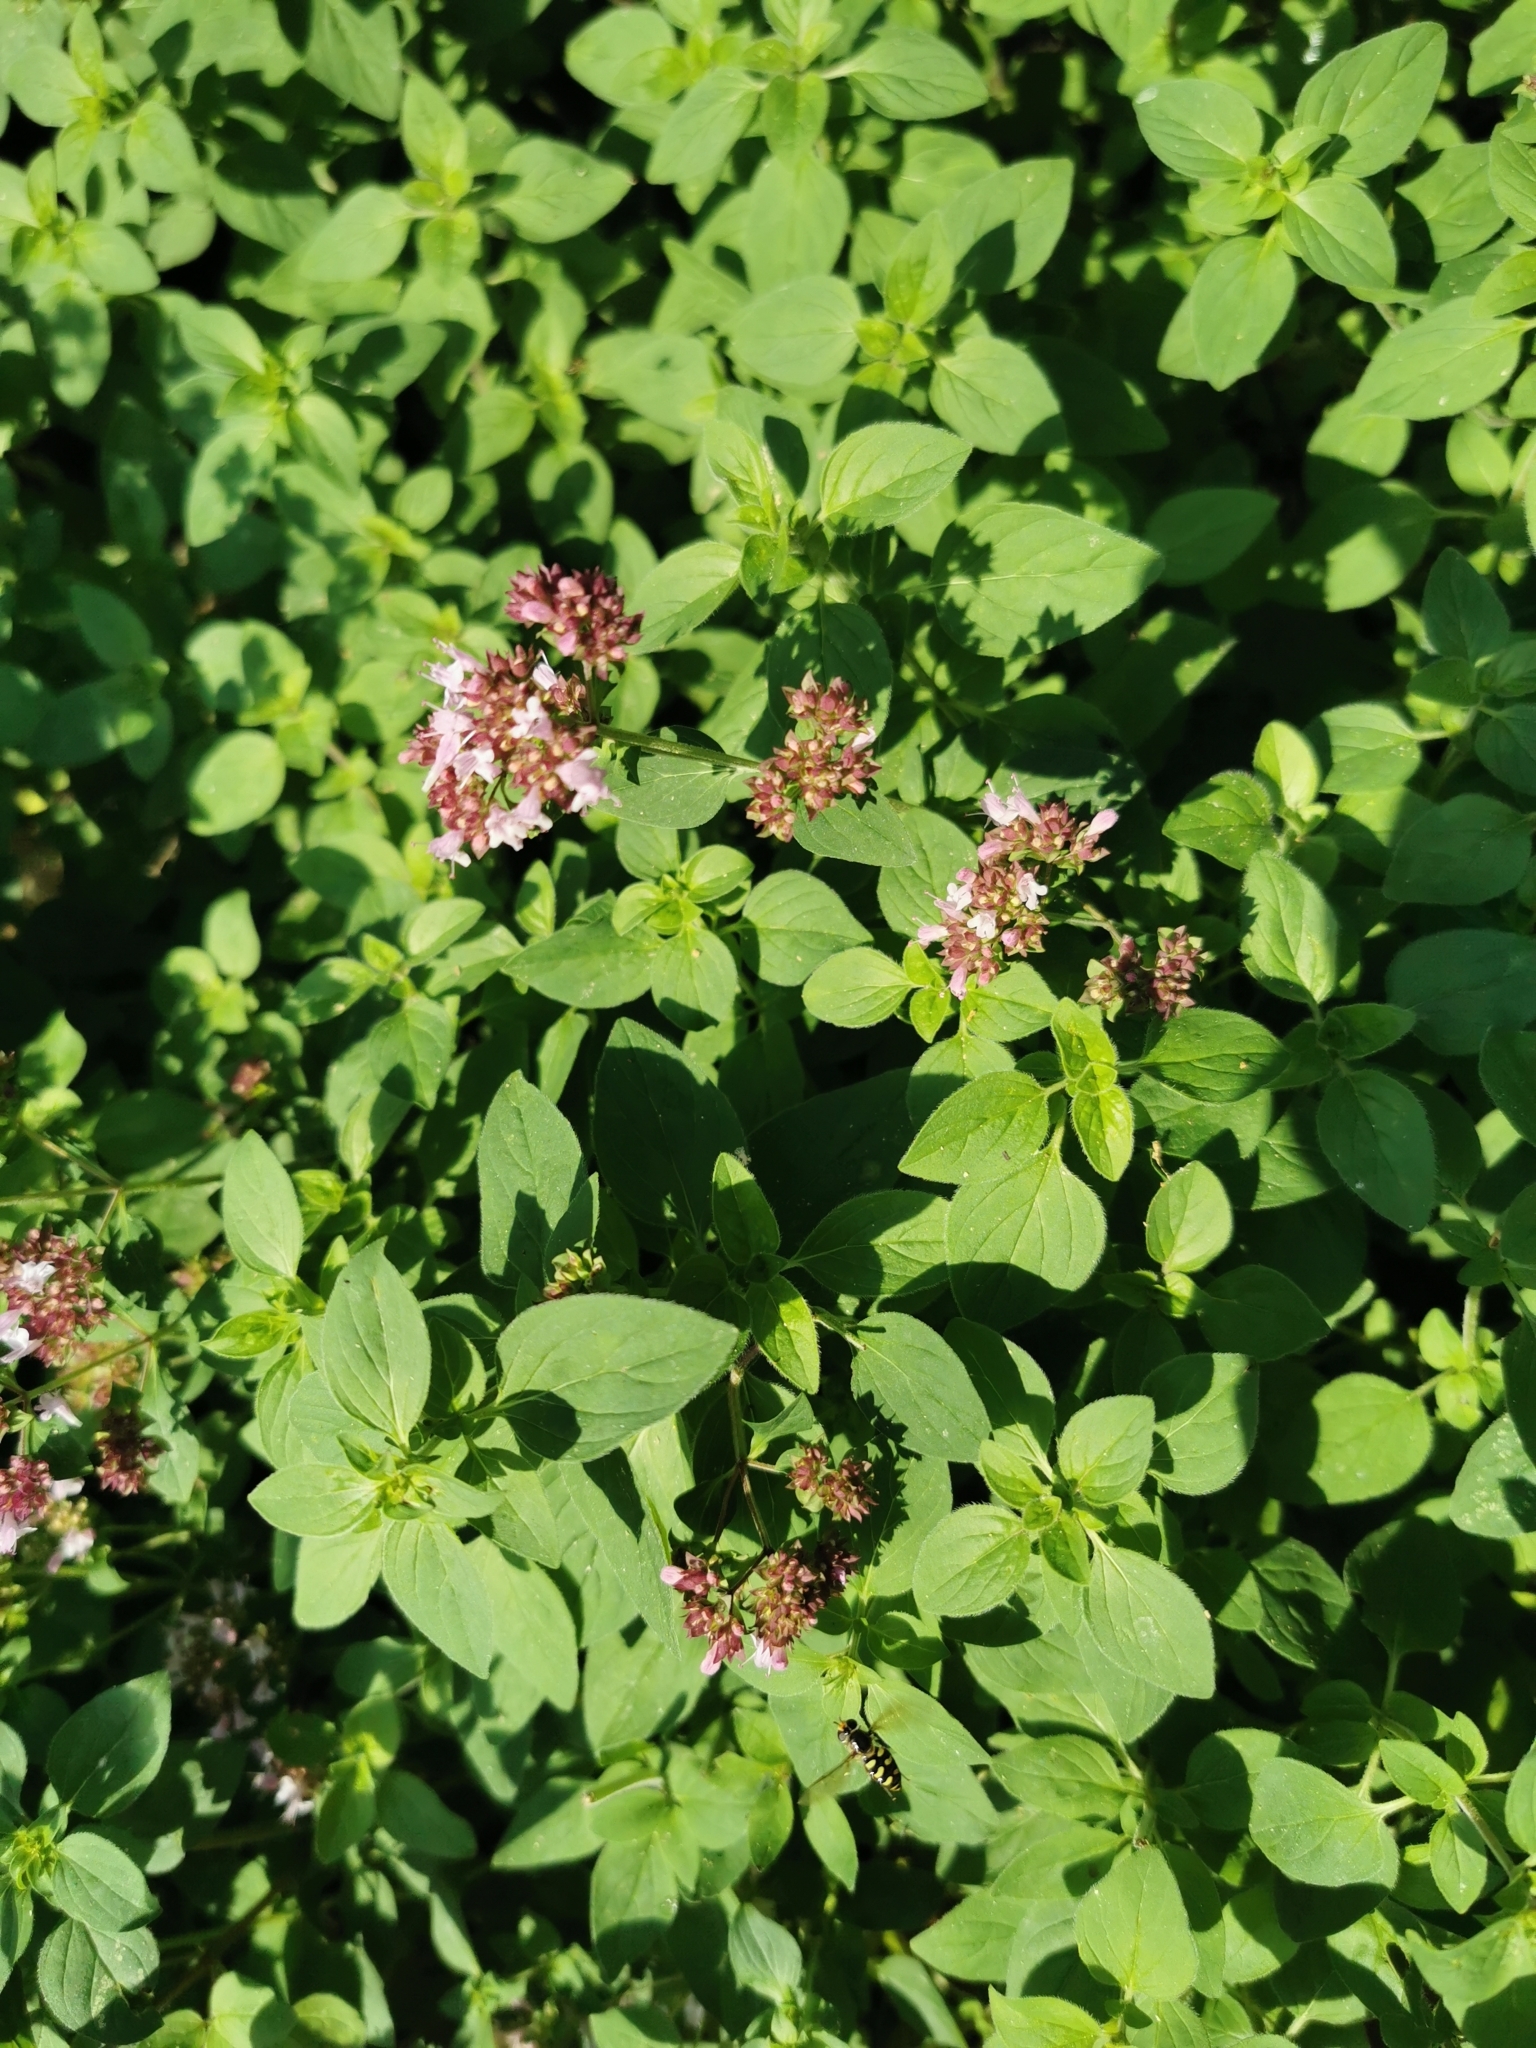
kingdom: Plantae
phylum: Tracheophyta
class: Magnoliopsida
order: Lamiales
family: Lamiaceae
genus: Origanum
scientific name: Origanum vulgare
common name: Wild marjoram
